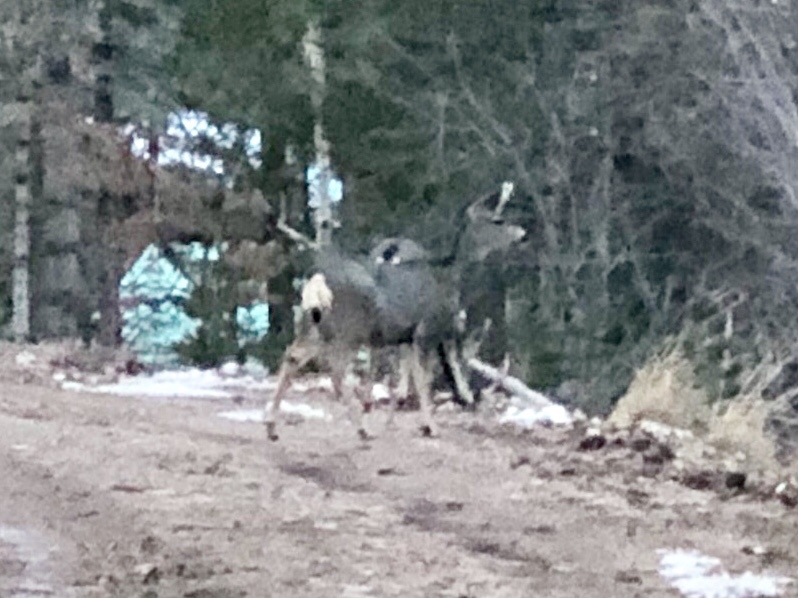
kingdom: Animalia
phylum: Chordata
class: Mammalia
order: Artiodactyla
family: Cervidae
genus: Odocoileus
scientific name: Odocoileus hemionus
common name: Mule deer
